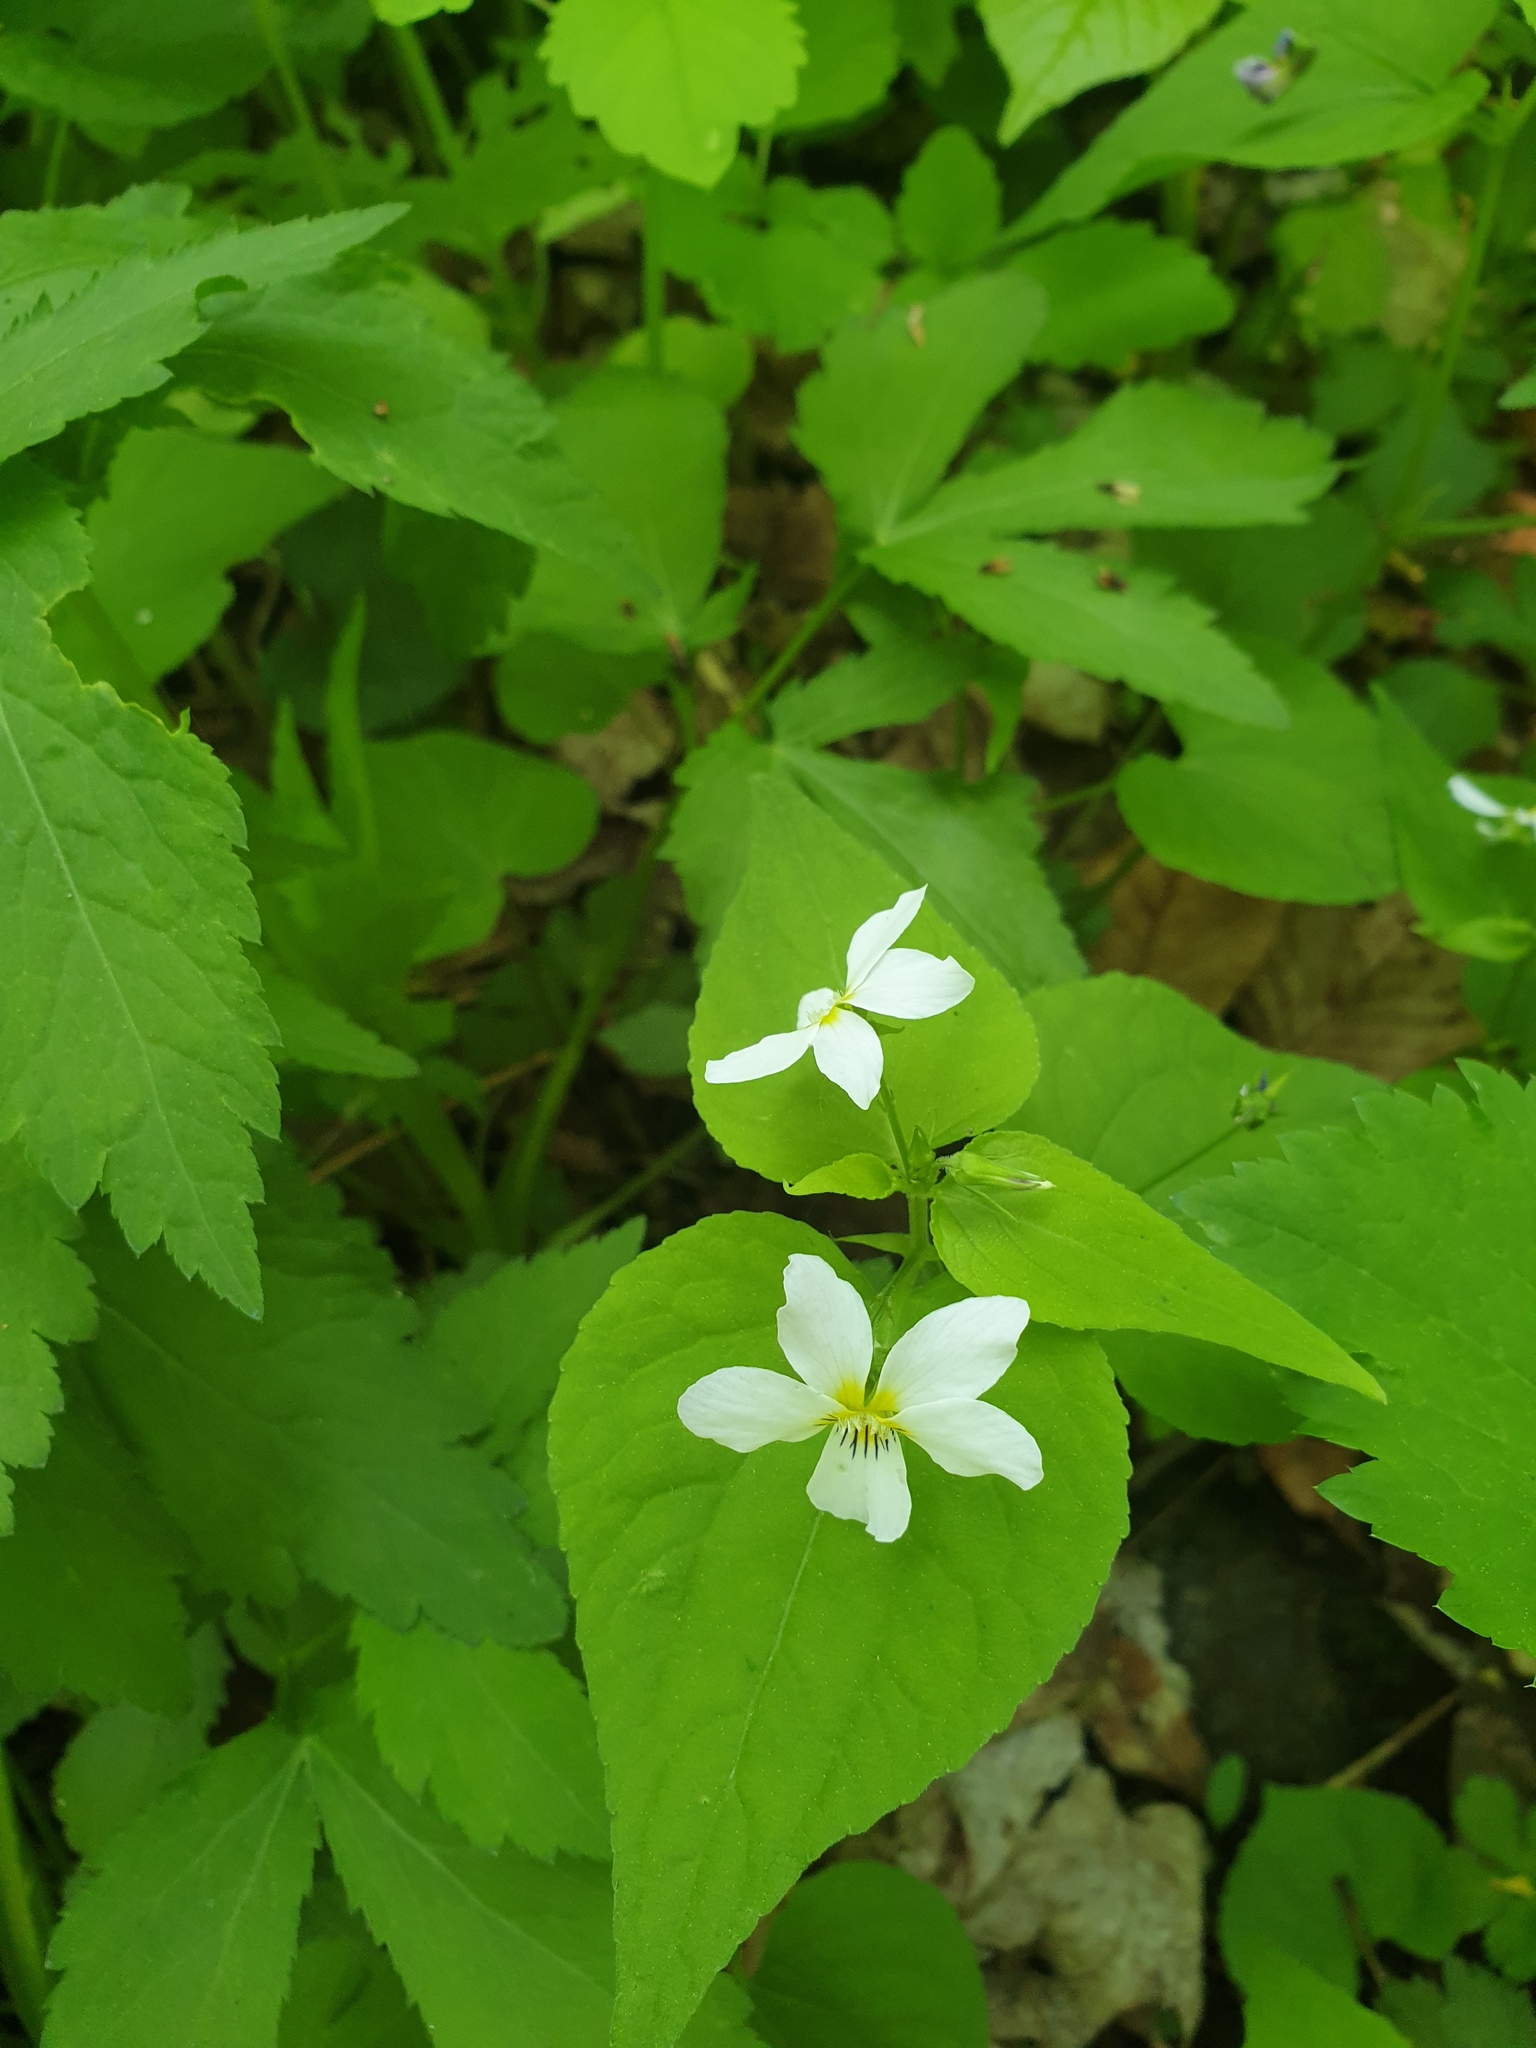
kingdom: Plantae
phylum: Tracheophyta
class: Magnoliopsida
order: Malpighiales
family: Violaceae
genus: Viola
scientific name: Viola canadensis
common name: Canada violet
